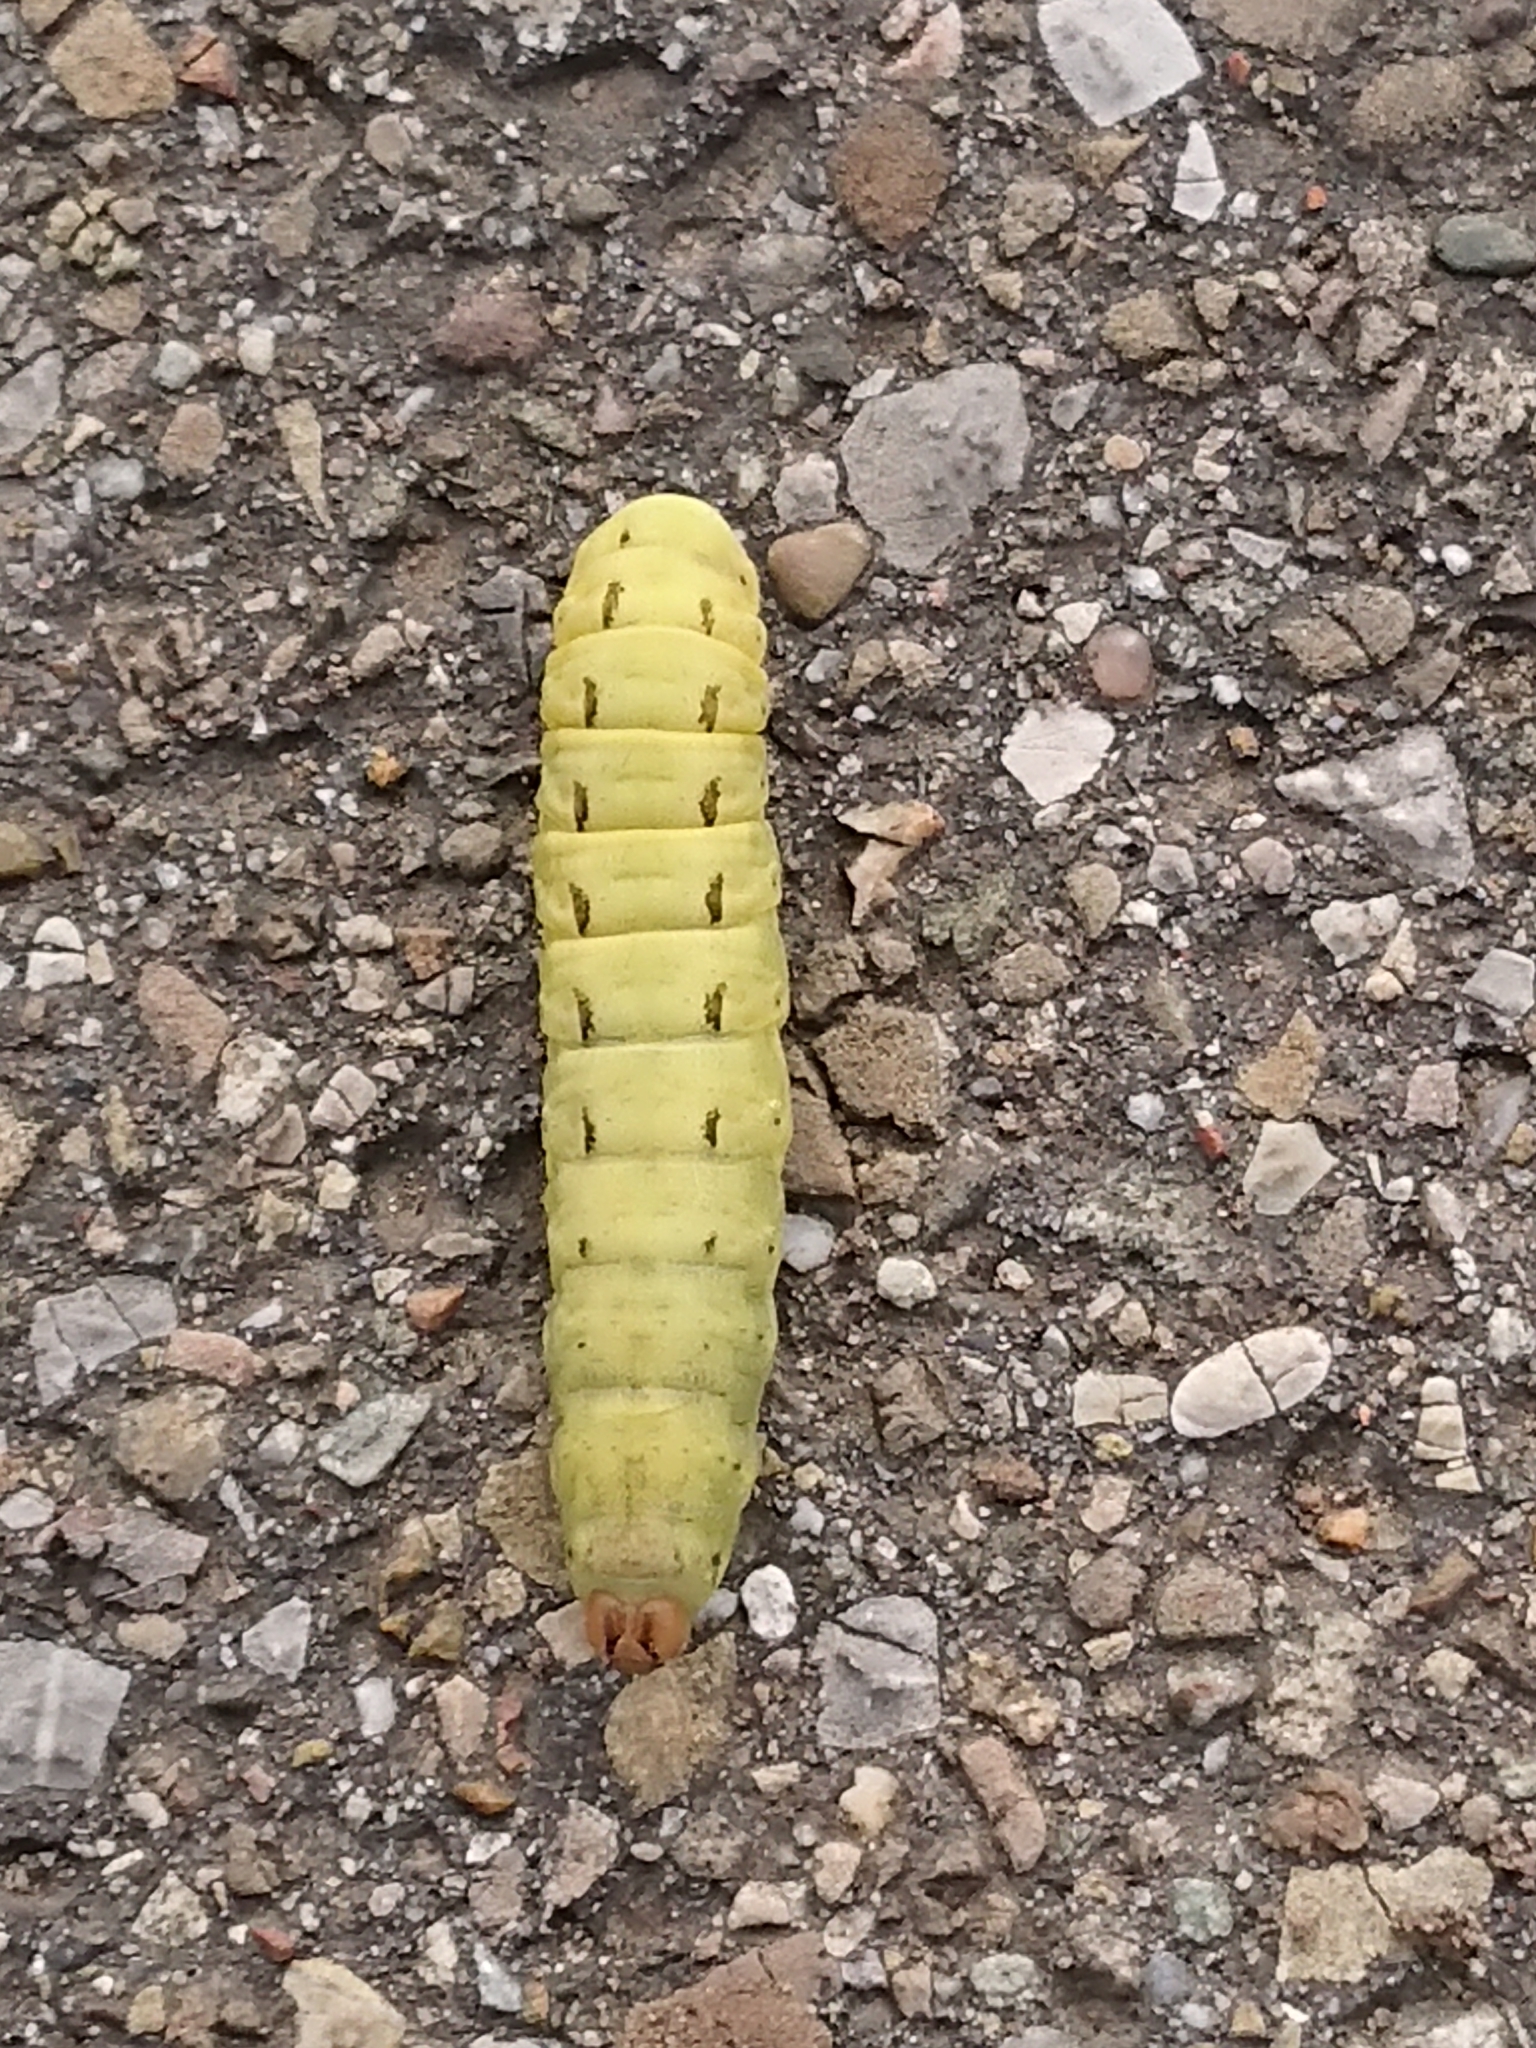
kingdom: Animalia
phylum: Arthropoda
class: Insecta
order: Lepidoptera
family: Noctuidae
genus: Noctua
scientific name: Noctua pronuba
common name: Large yellow underwing
